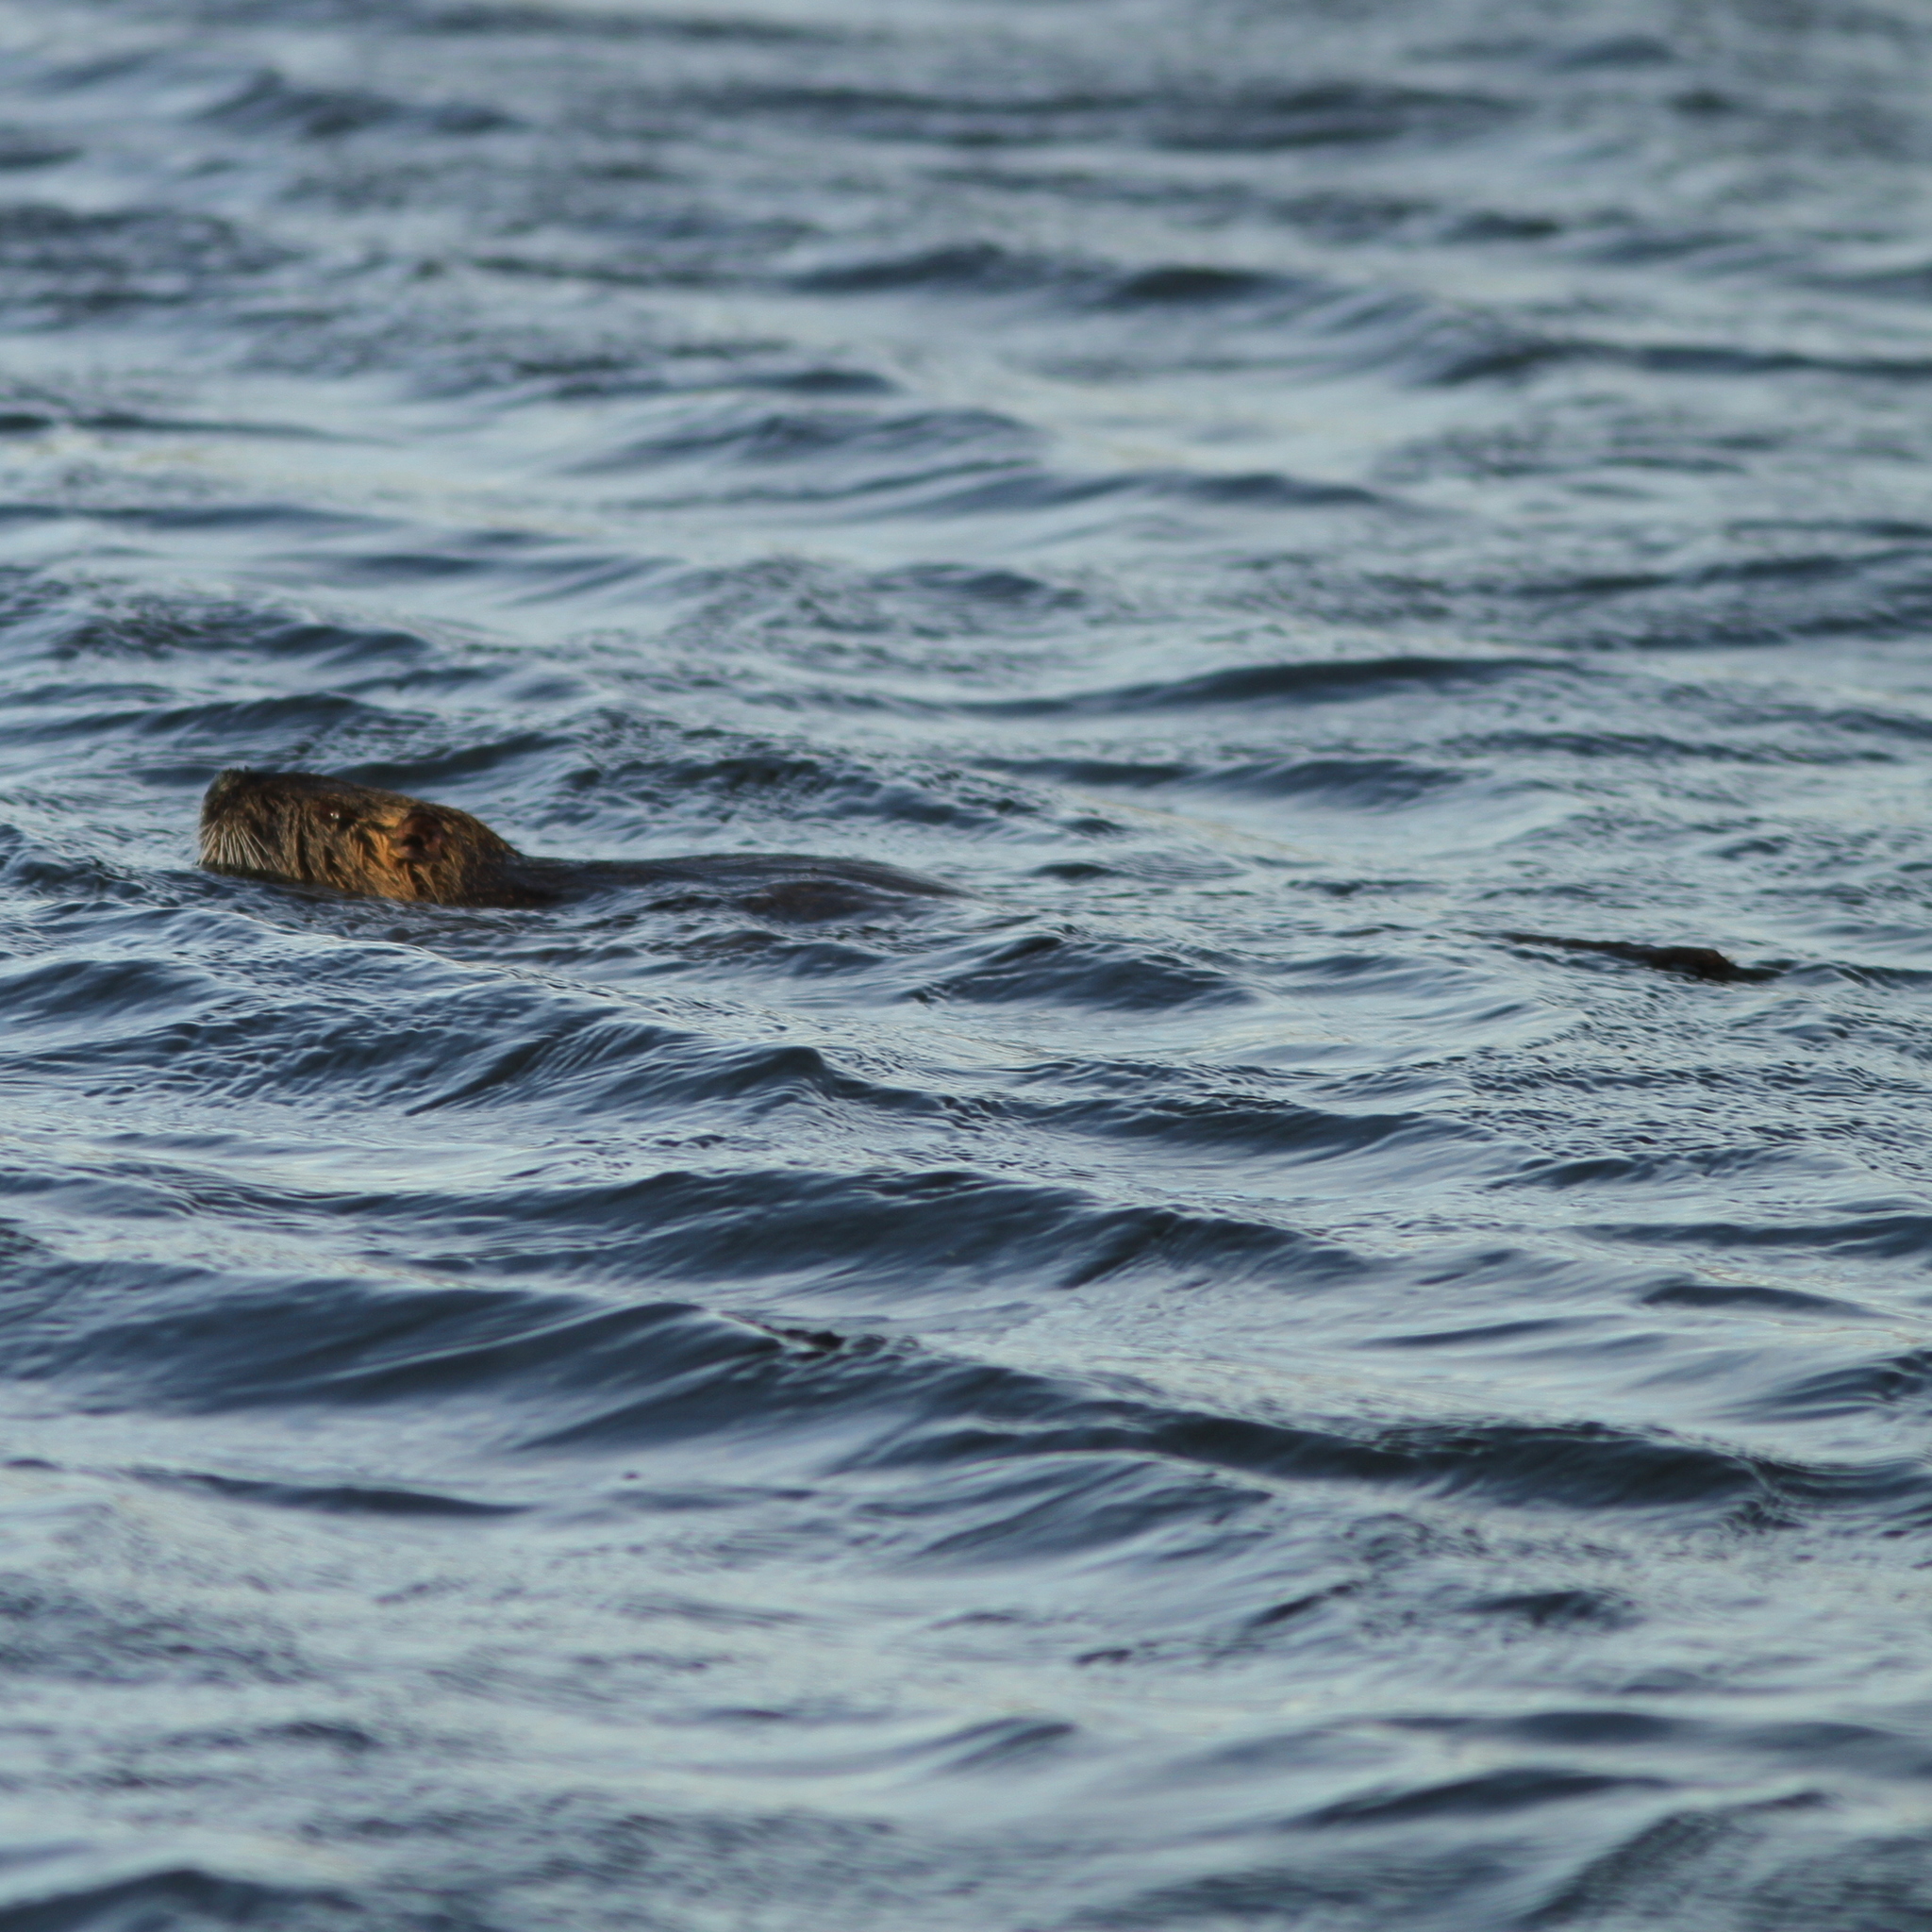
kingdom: Animalia
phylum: Chordata
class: Mammalia
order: Rodentia
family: Myocastoridae
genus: Myocastor
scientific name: Myocastor coypus
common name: Coypu
